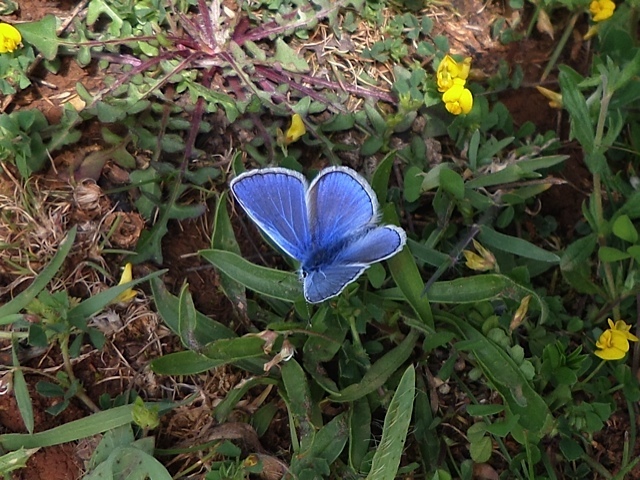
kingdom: Animalia
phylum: Arthropoda
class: Insecta
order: Lepidoptera
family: Lycaenidae
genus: Polyommatus
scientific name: Polyommatus icarus
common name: Common blue
